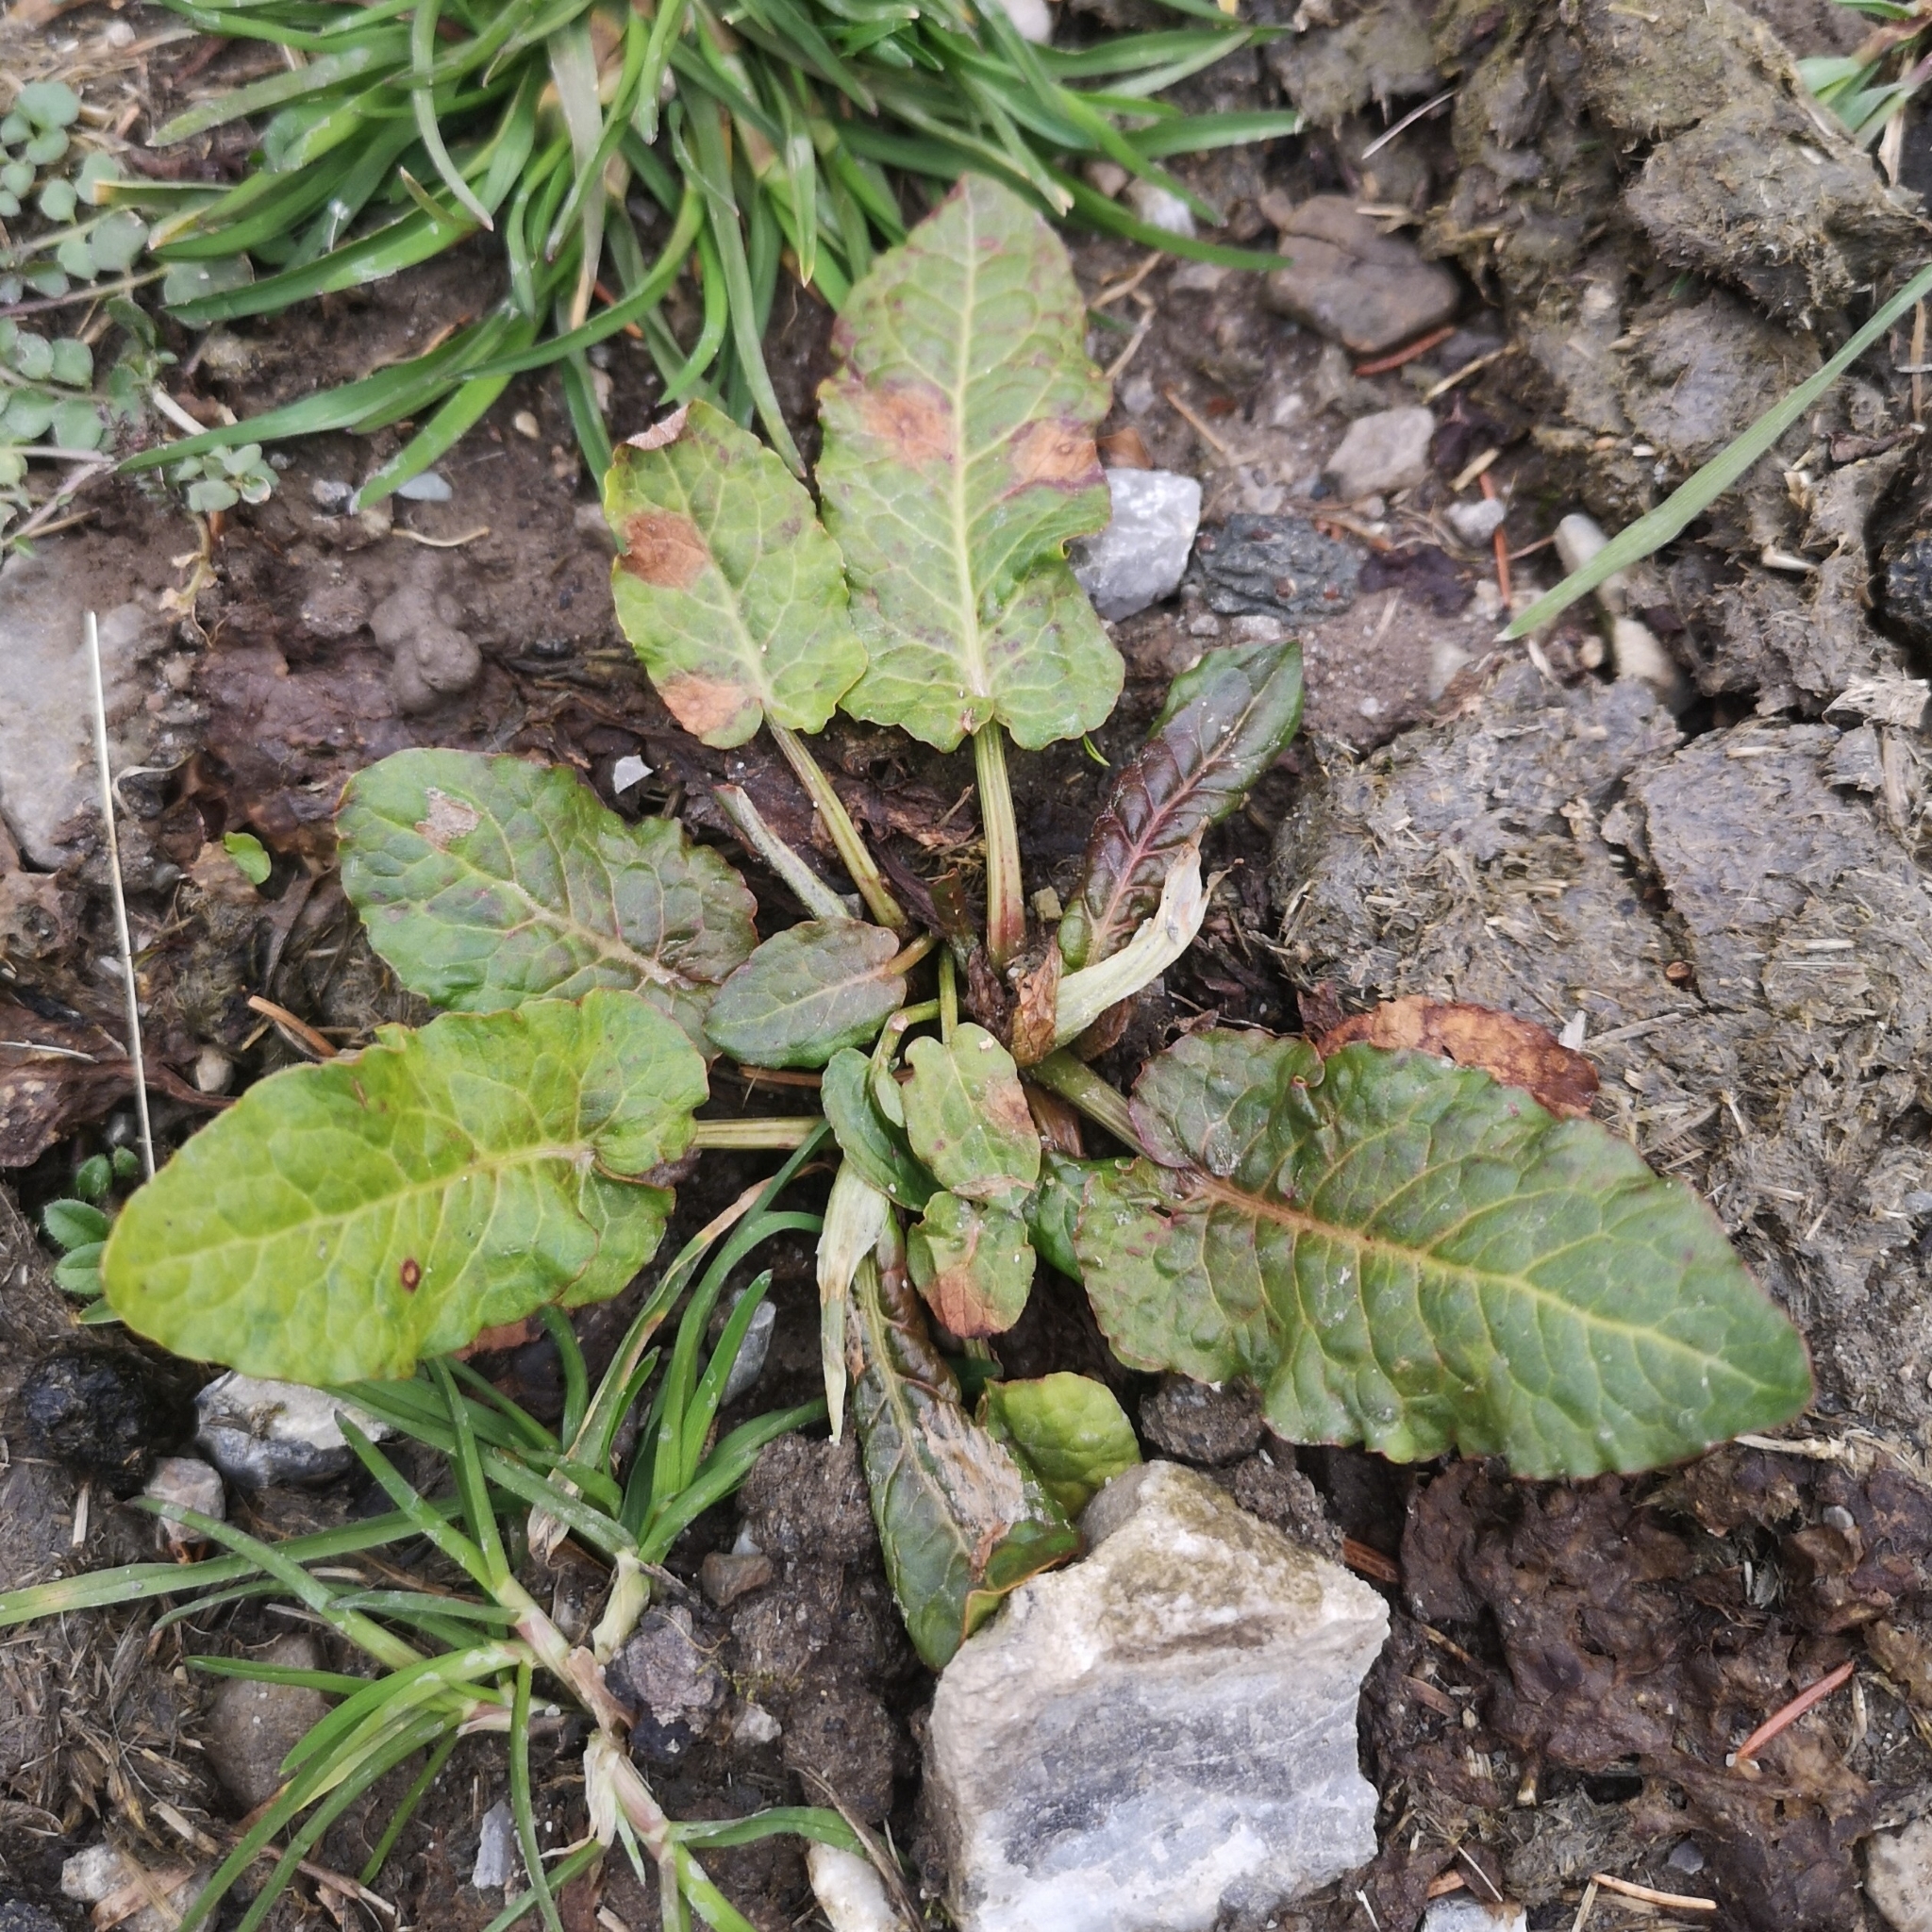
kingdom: Plantae
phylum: Tracheophyta
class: Magnoliopsida
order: Caryophyllales
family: Polygonaceae
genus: Rumex
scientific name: Rumex obtusifolius
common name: Bitter dock
